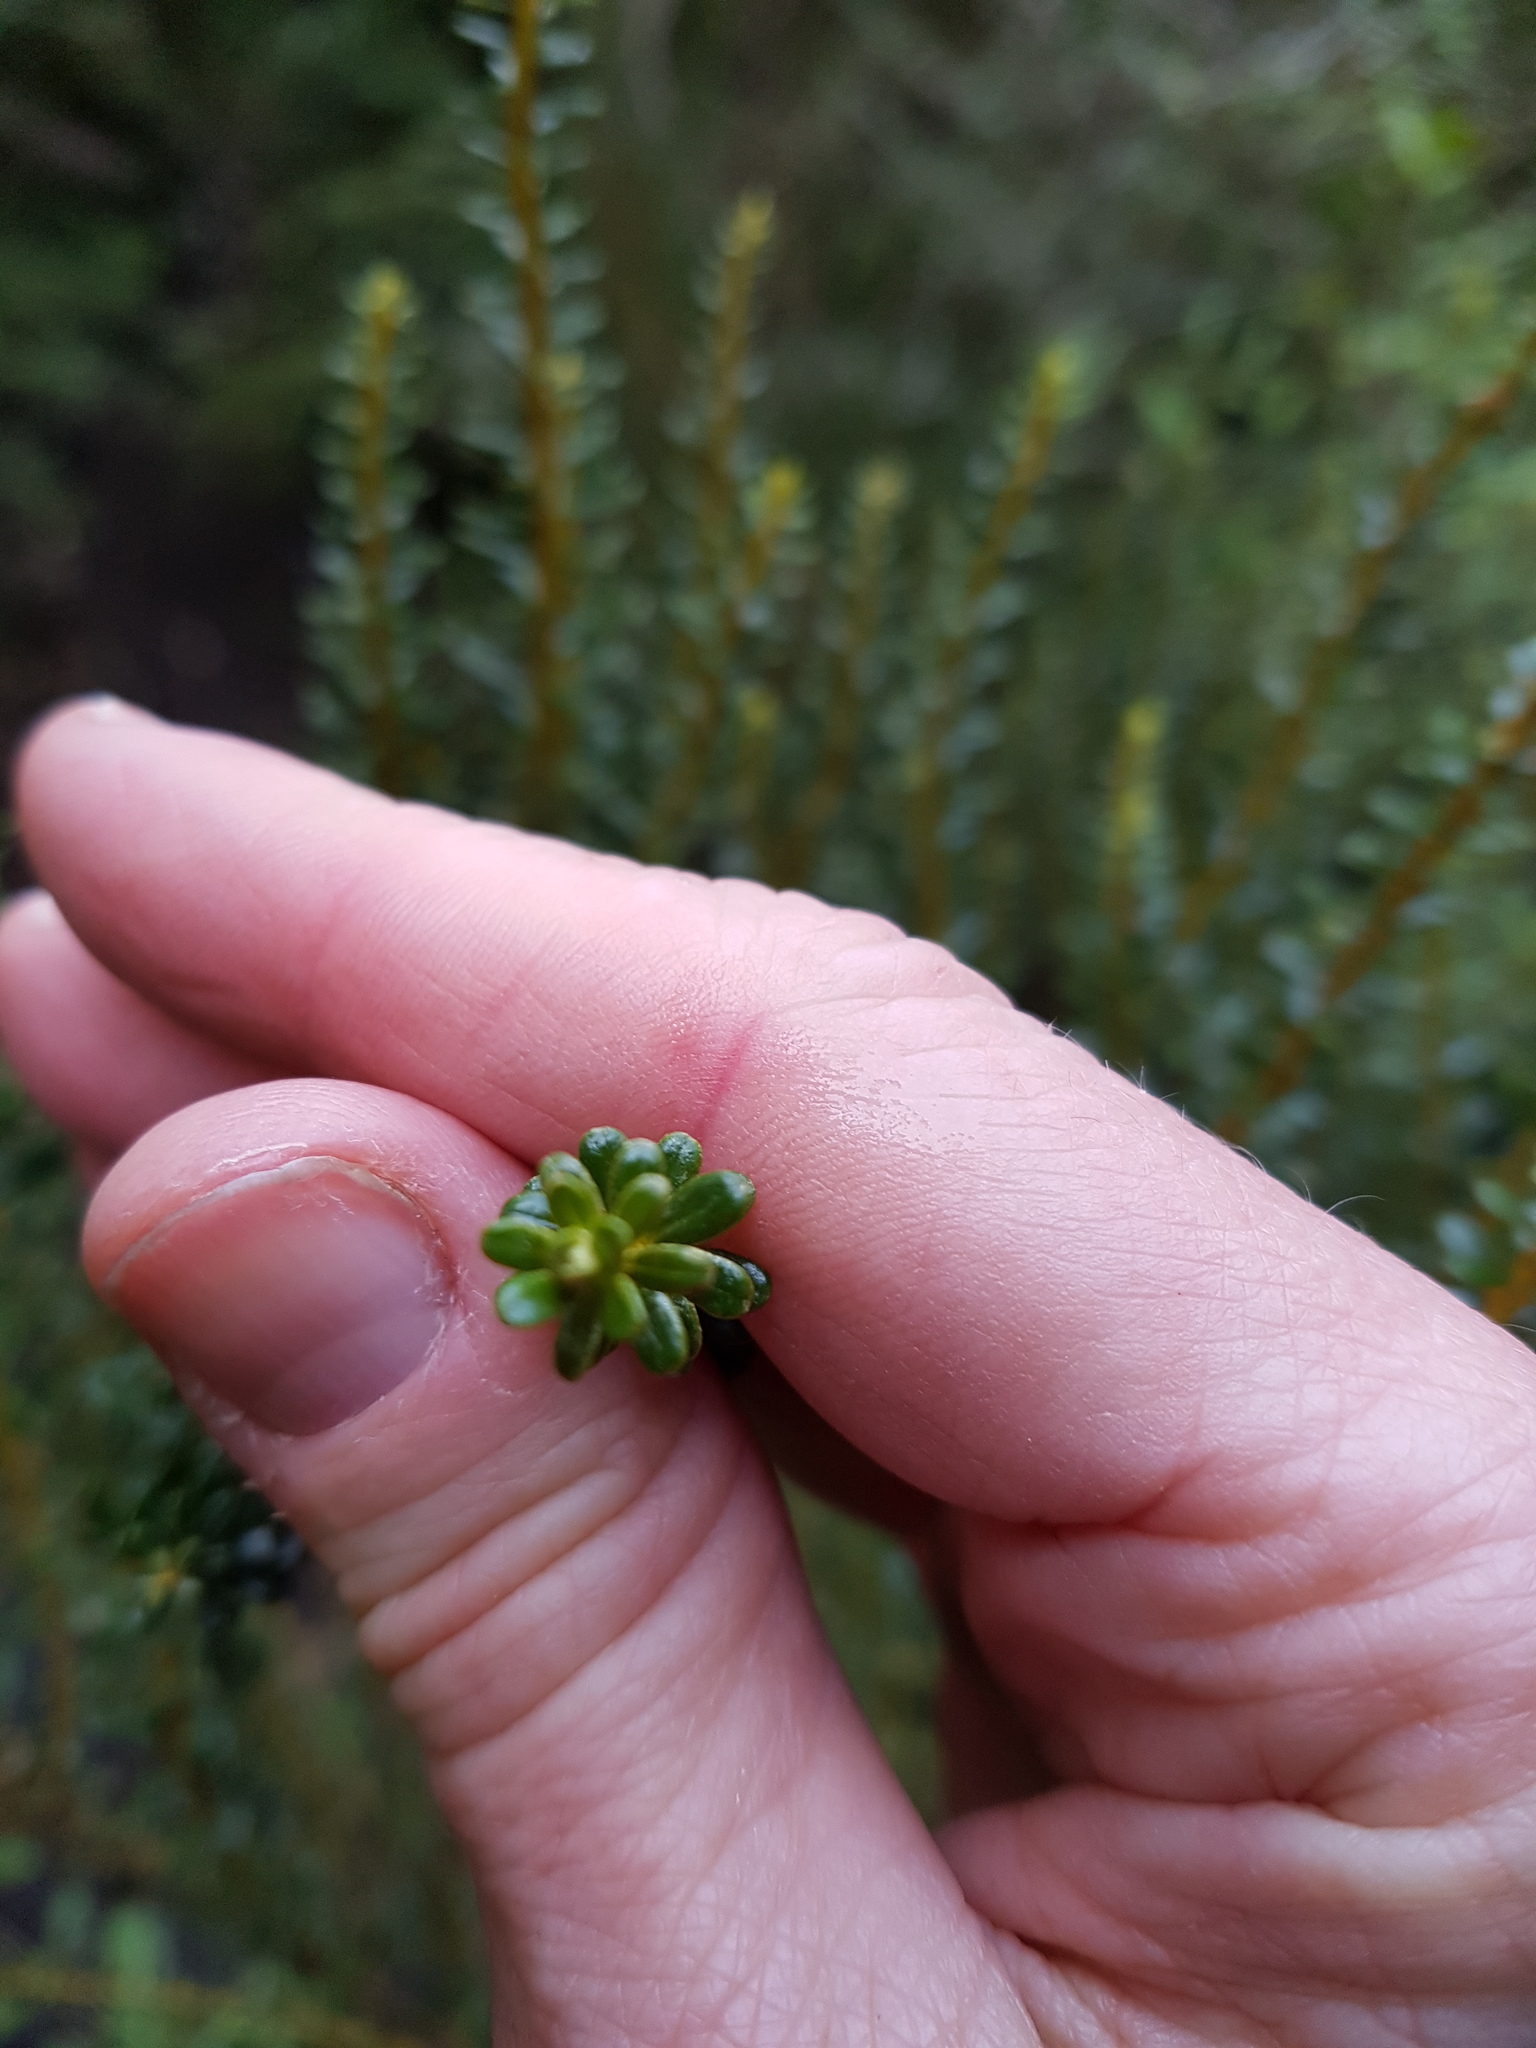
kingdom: Plantae
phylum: Tracheophyta
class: Magnoliopsida
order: Asterales
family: Asteraceae
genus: Ozothamnus
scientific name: Ozothamnus leptophyllus
